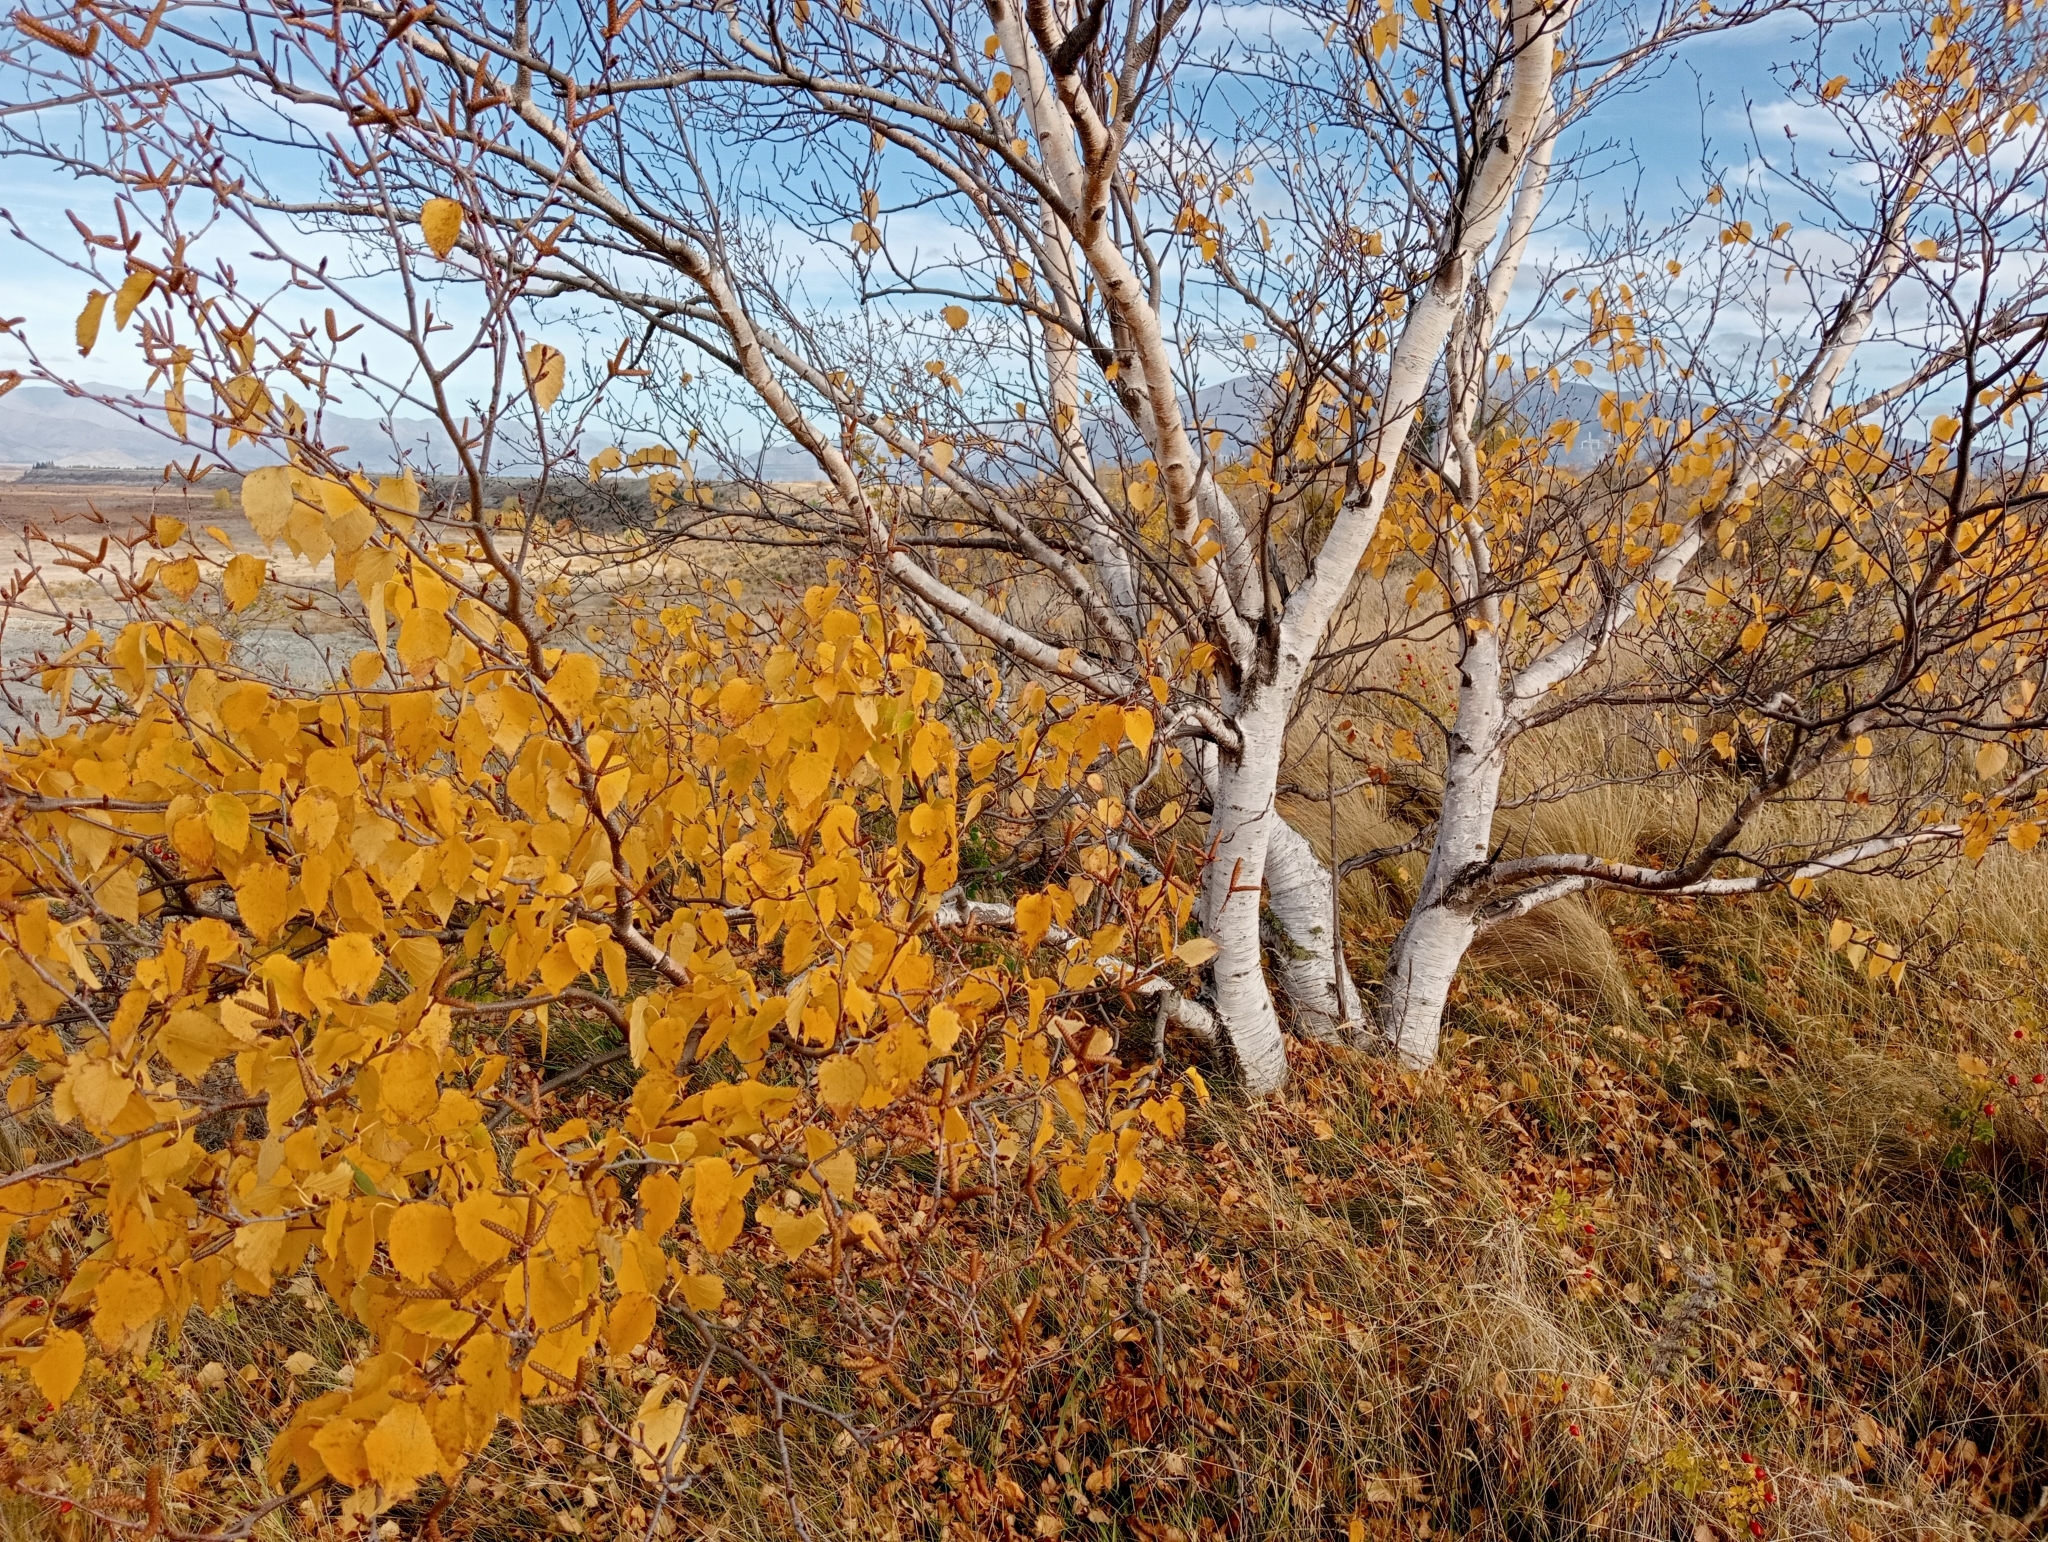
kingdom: Plantae
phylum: Tracheophyta
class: Magnoliopsida
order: Fagales
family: Betulaceae
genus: Betula
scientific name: Betula pendula
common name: Silver birch
